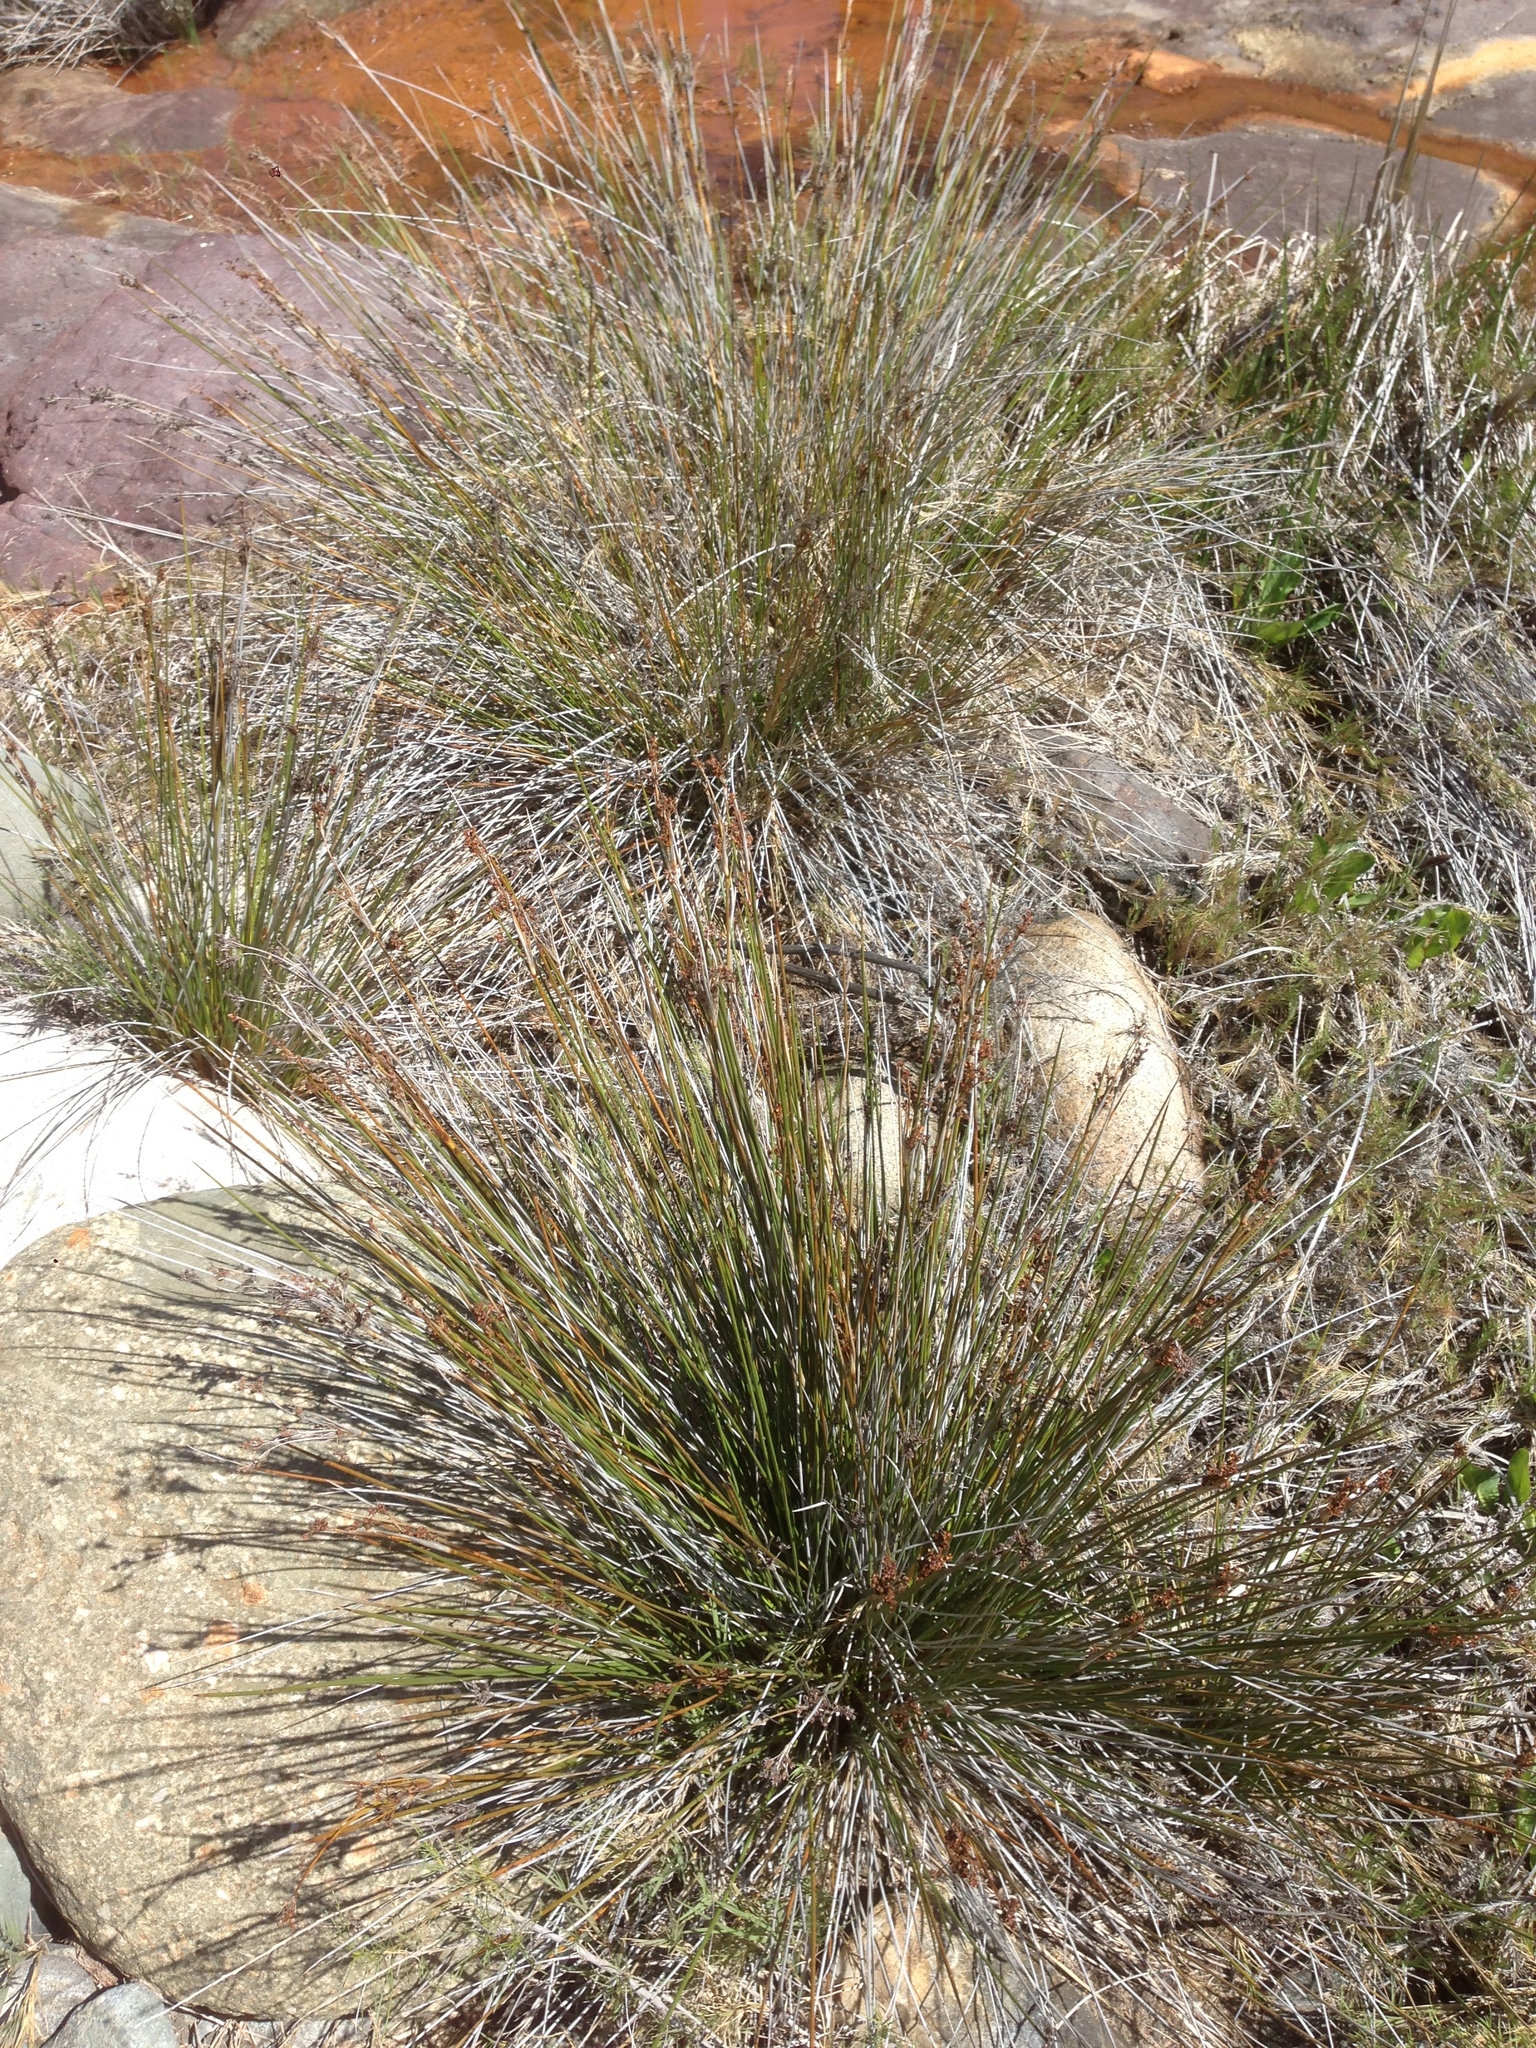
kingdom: Plantae
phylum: Tracheophyta
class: Liliopsida
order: Poales
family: Juncaceae
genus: Juncus
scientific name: Juncus acutus
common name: Sharp rush
